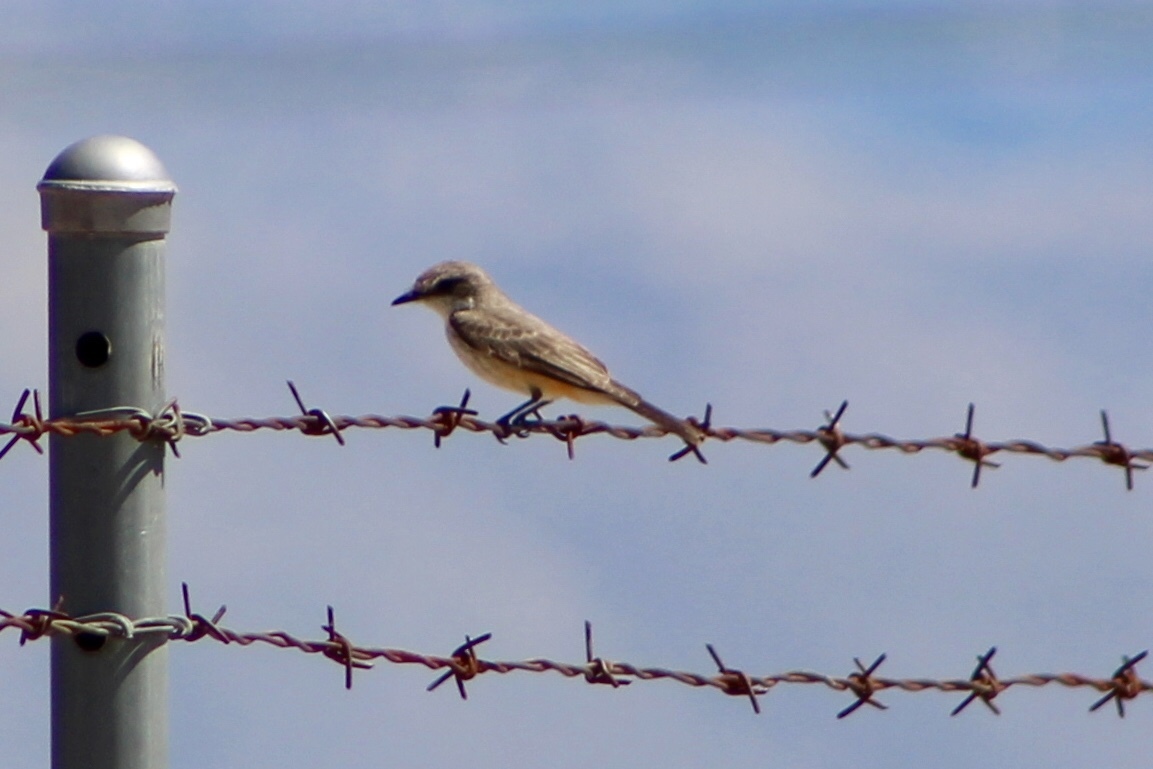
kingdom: Animalia
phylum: Chordata
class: Aves
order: Passeriformes
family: Tyrannidae
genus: Pyrocephalus
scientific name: Pyrocephalus rubinus
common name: Vermilion flycatcher
